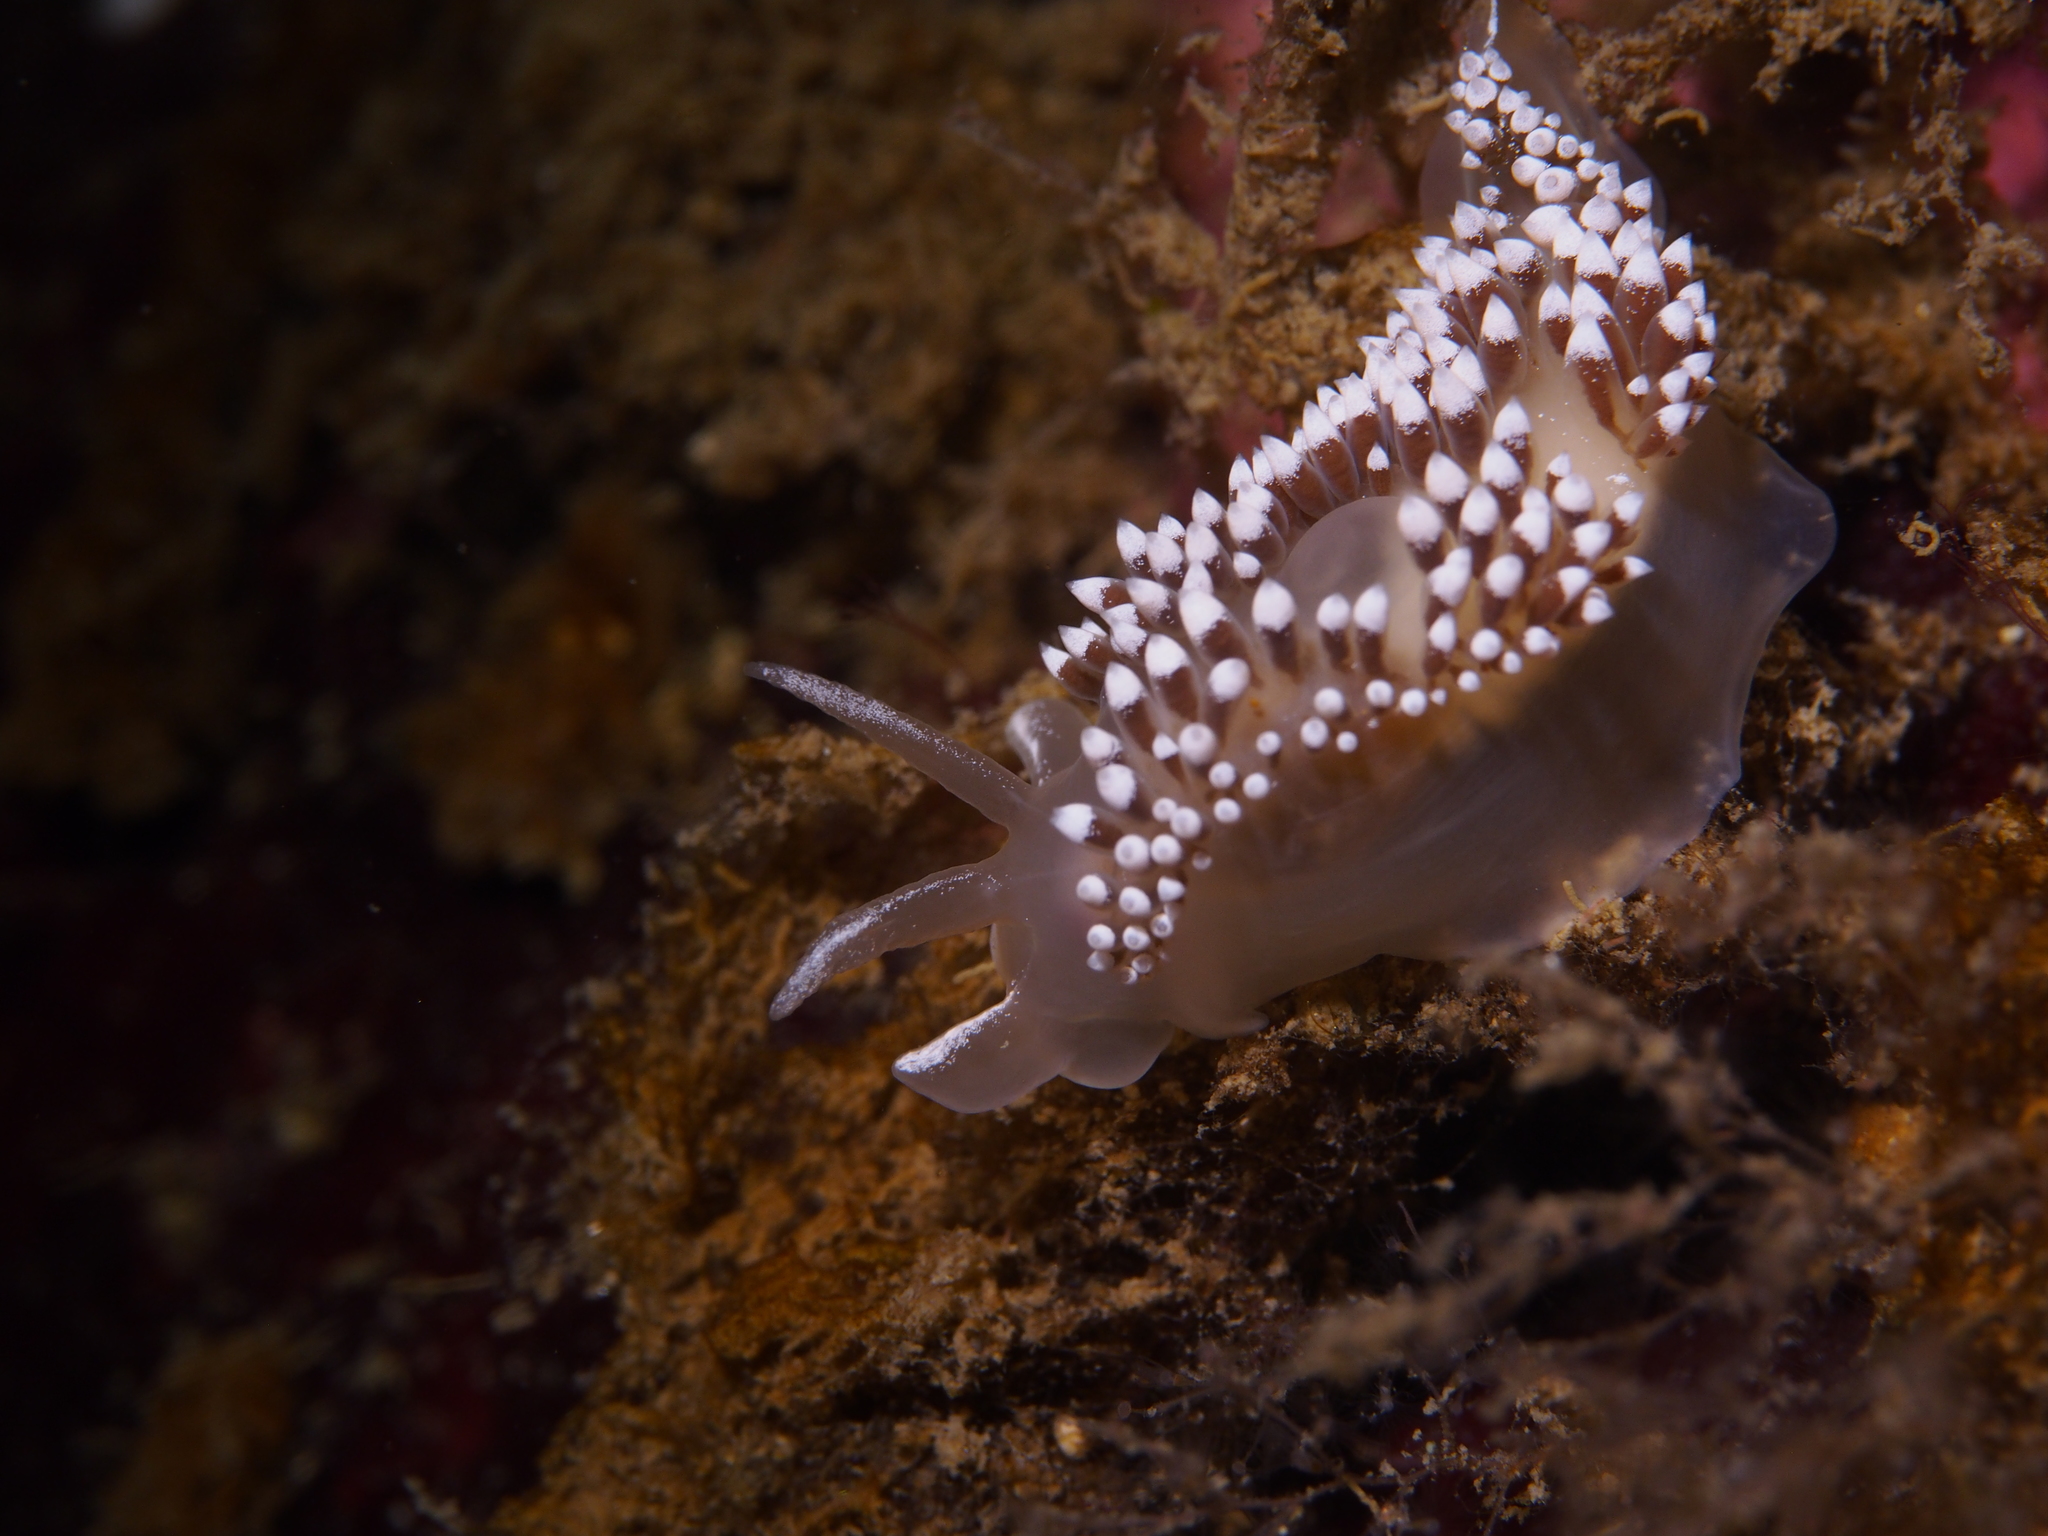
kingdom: Animalia
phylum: Mollusca
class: Gastropoda
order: Nudibranchia
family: Coryphellidae
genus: Coryphella
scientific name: Coryphella verrucosa
